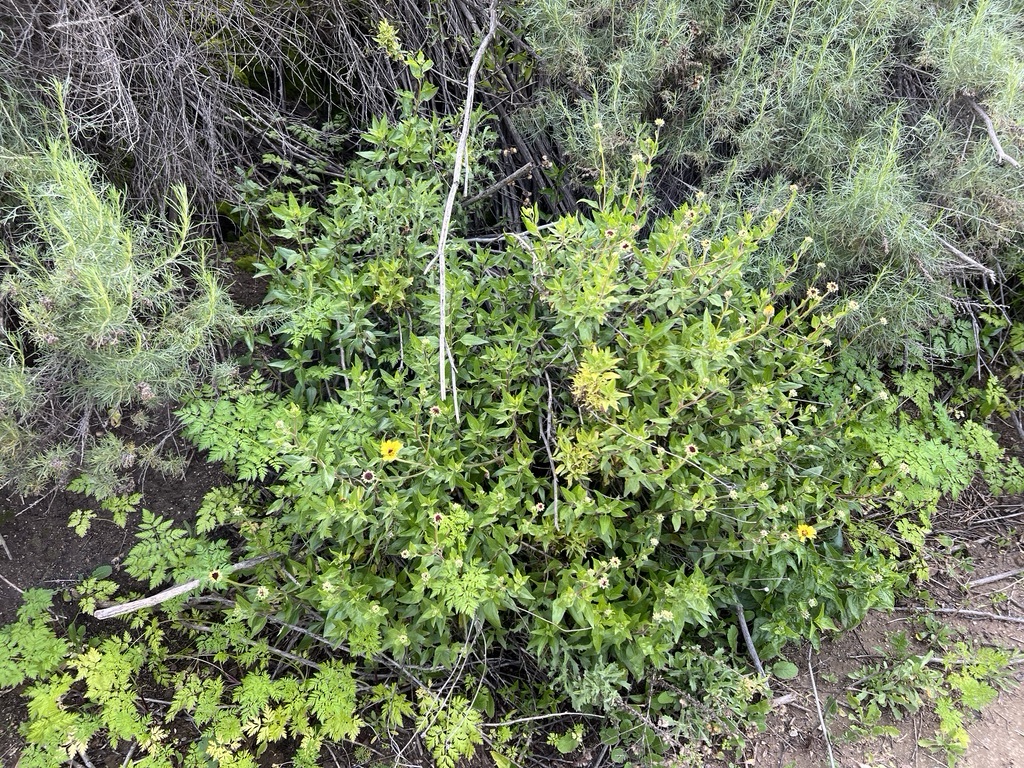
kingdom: Plantae
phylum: Tracheophyta
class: Magnoliopsida
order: Asterales
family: Asteraceae
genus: Encelia
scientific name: Encelia californica
